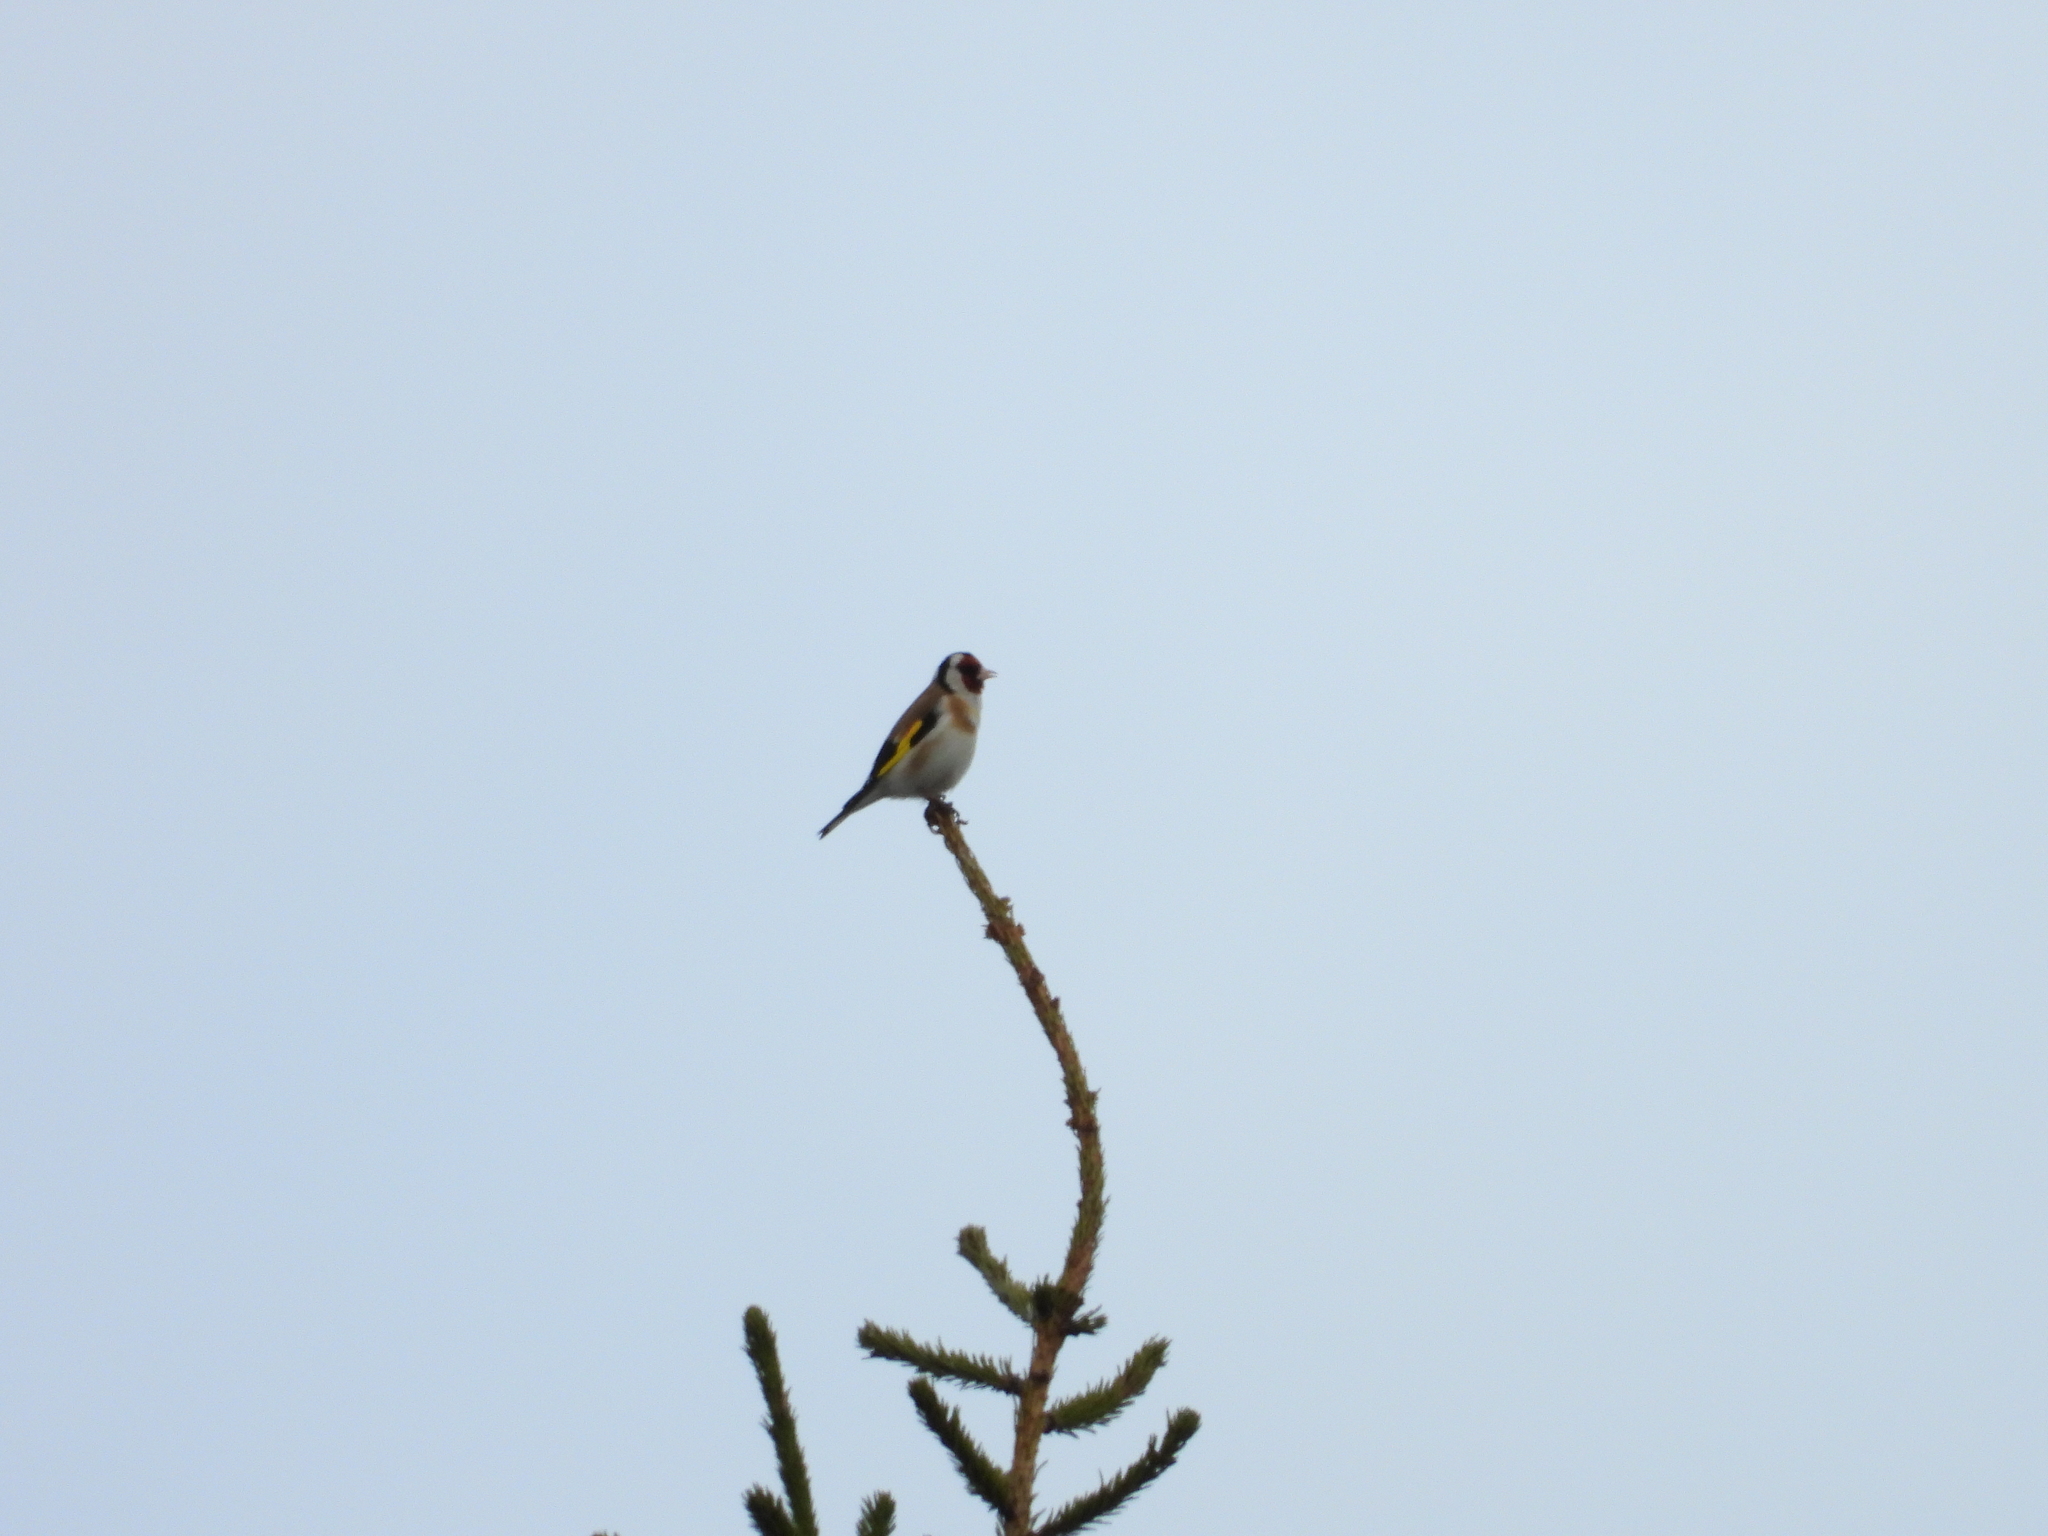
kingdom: Animalia
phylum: Chordata
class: Aves
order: Passeriformes
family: Fringillidae
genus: Carduelis
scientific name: Carduelis carduelis
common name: European goldfinch
